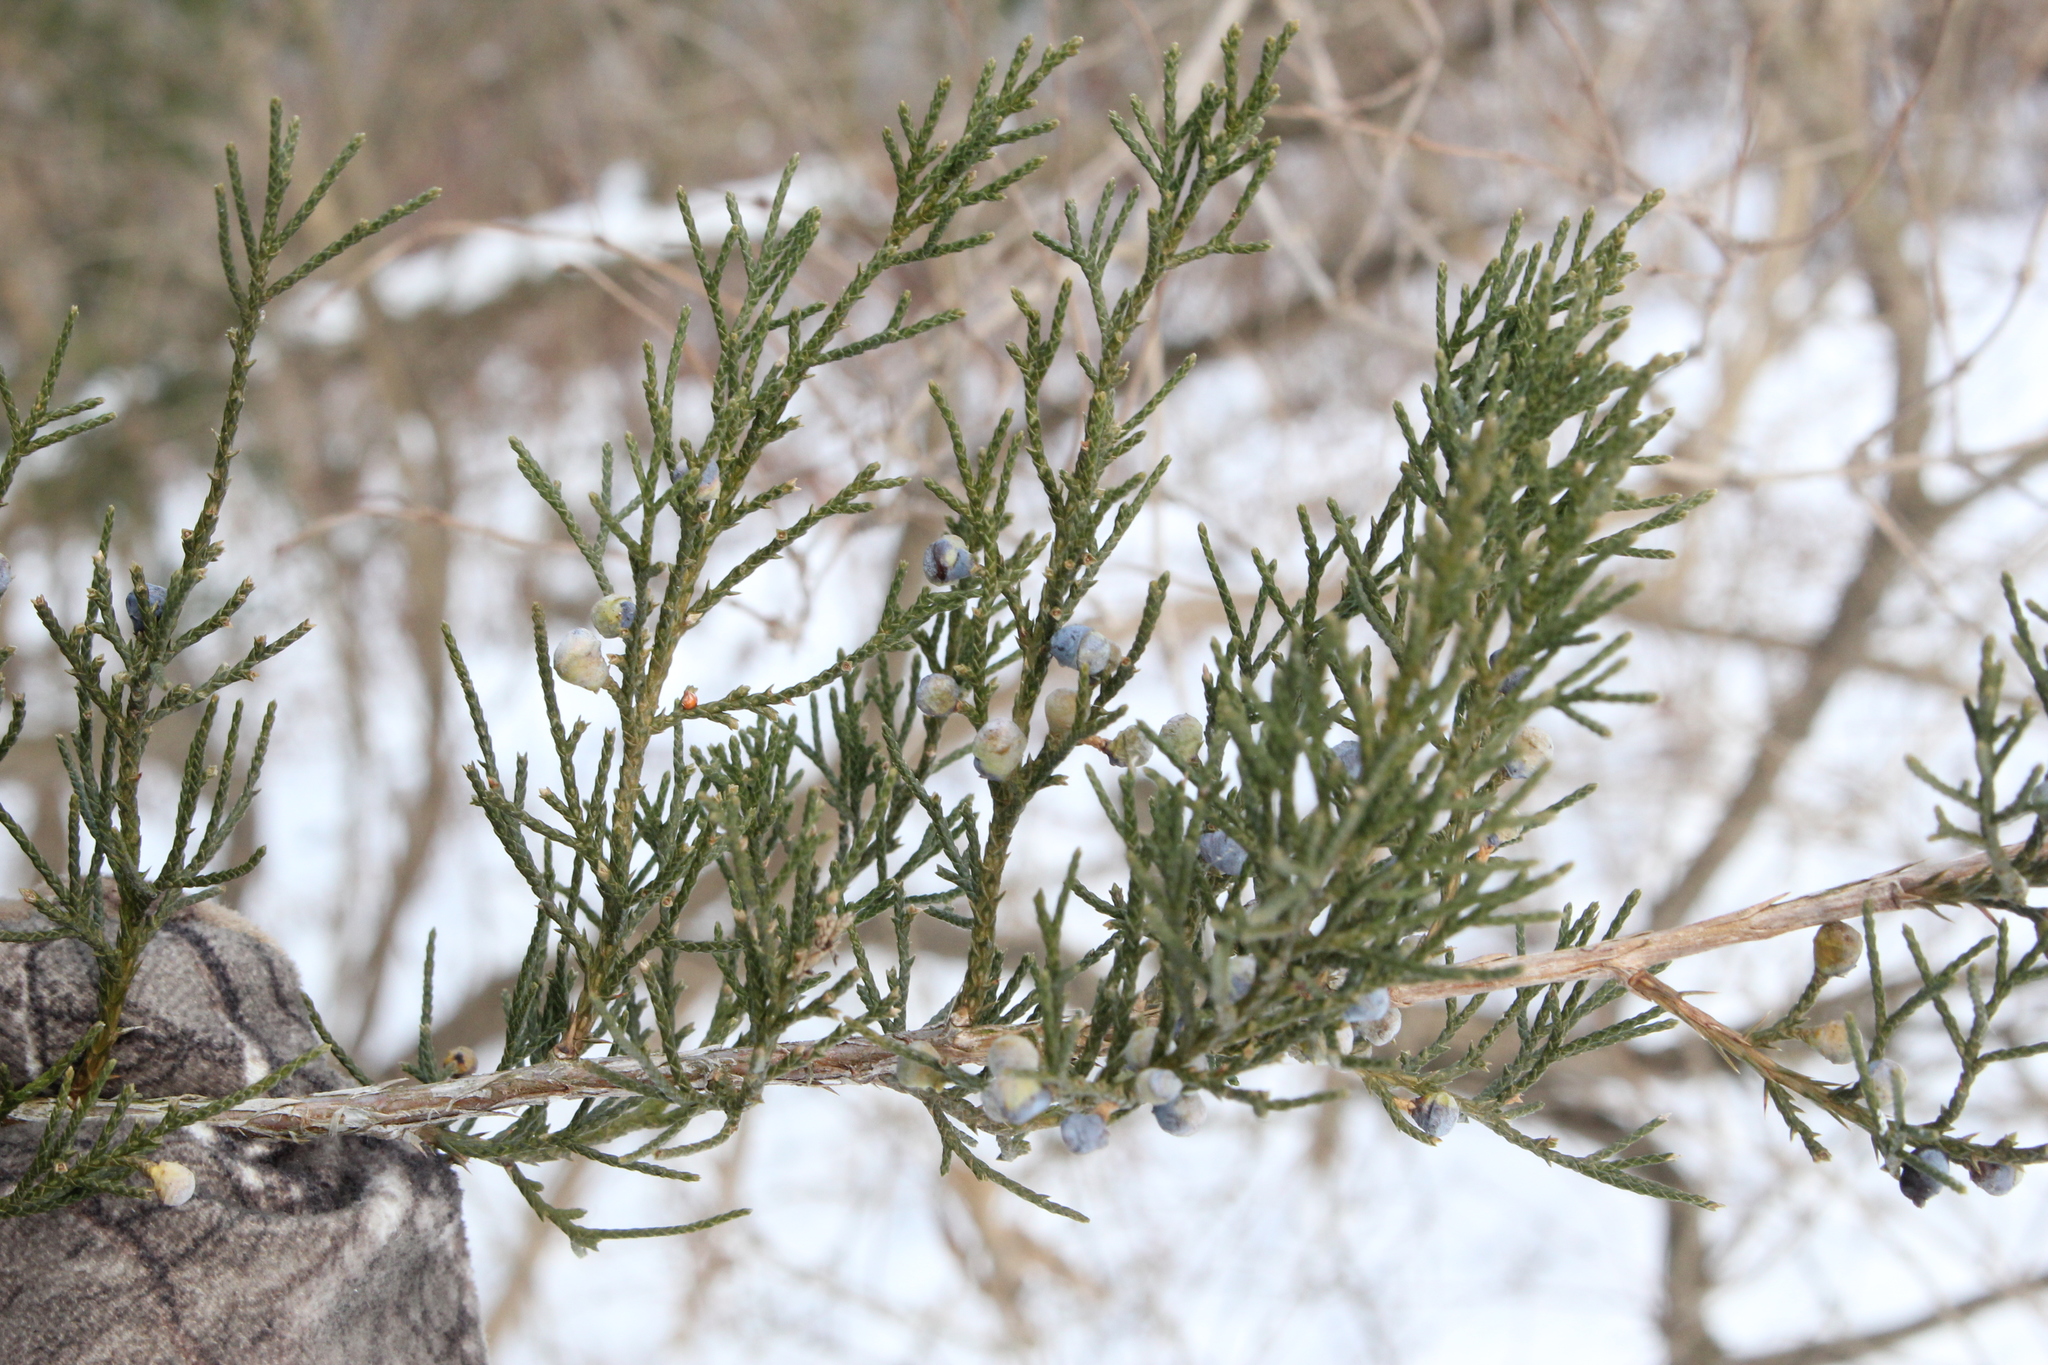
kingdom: Plantae
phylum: Tracheophyta
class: Pinopsida
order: Pinales
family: Cupressaceae
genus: Juniperus
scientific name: Juniperus virginiana
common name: Red juniper
